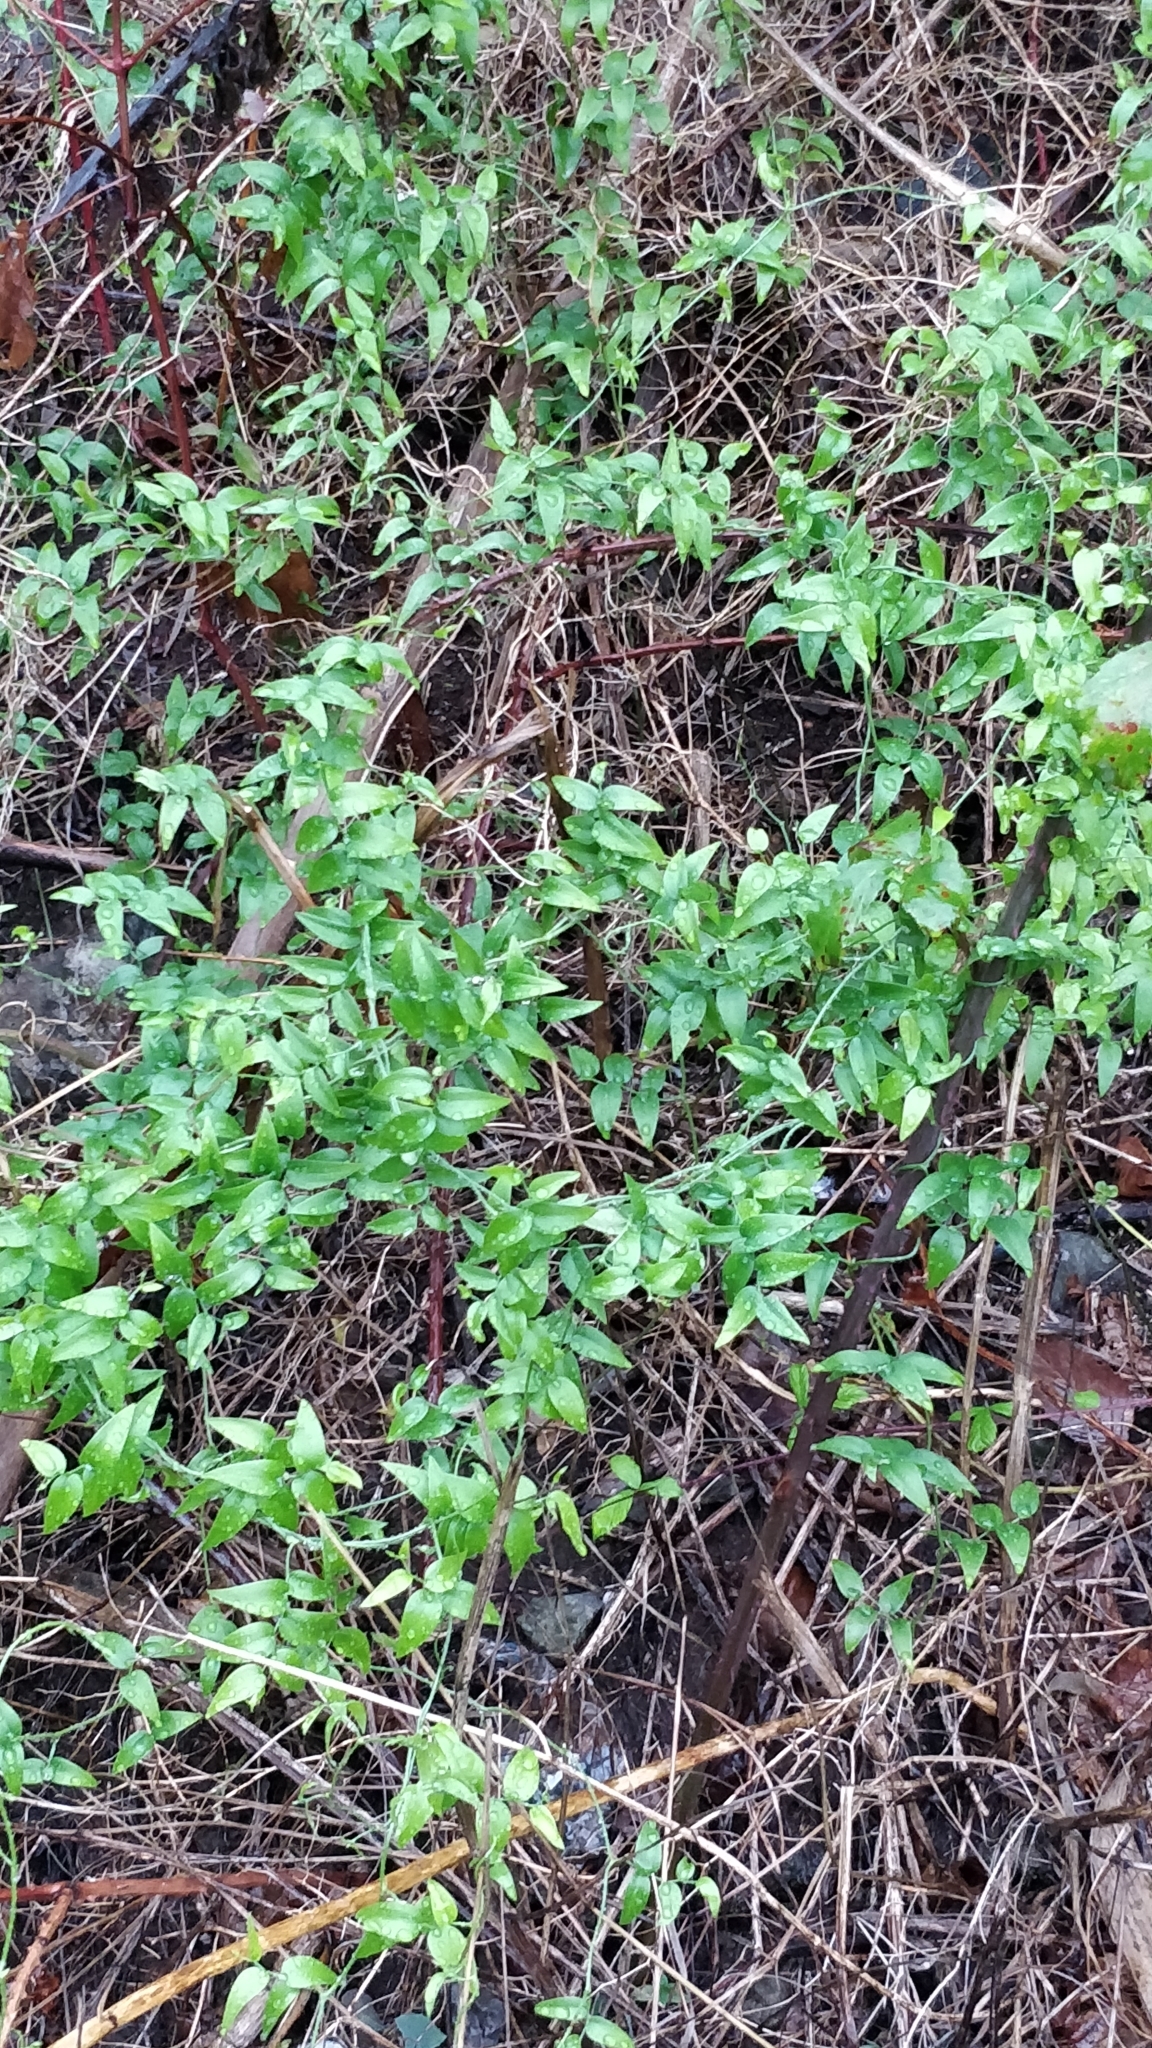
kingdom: Plantae
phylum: Tracheophyta
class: Liliopsida
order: Asparagales
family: Asparagaceae
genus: Asparagus
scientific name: Asparagus asparagoides
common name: African asparagus fern
